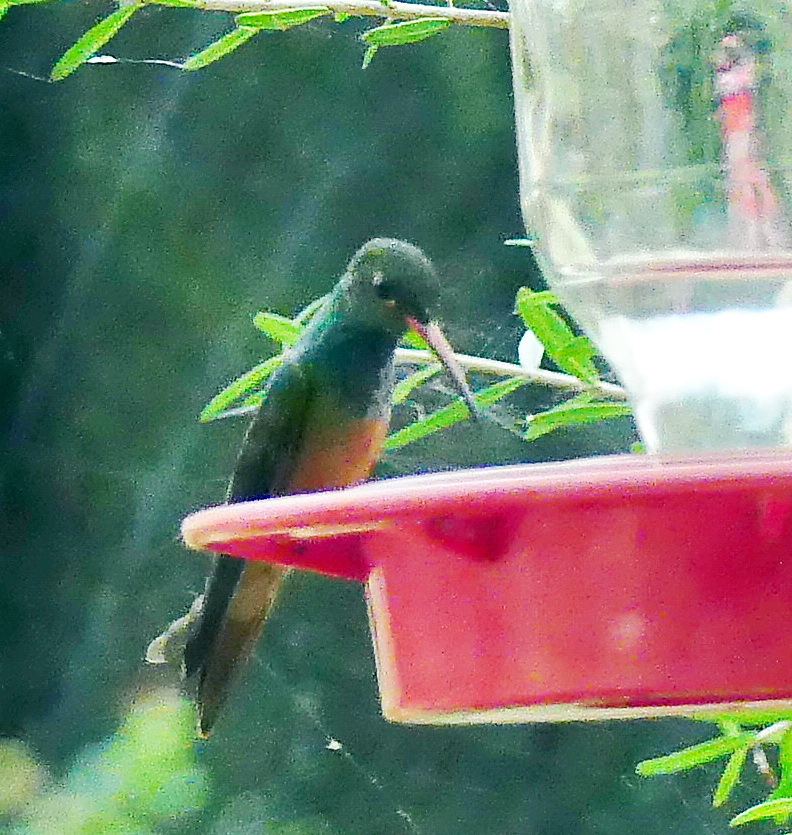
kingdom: Animalia
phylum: Chordata
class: Aves
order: Apodiformes
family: Trochilidae
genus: Amazilia
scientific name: Amazilia yucatanensis
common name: Buff-bellied hummingbird
